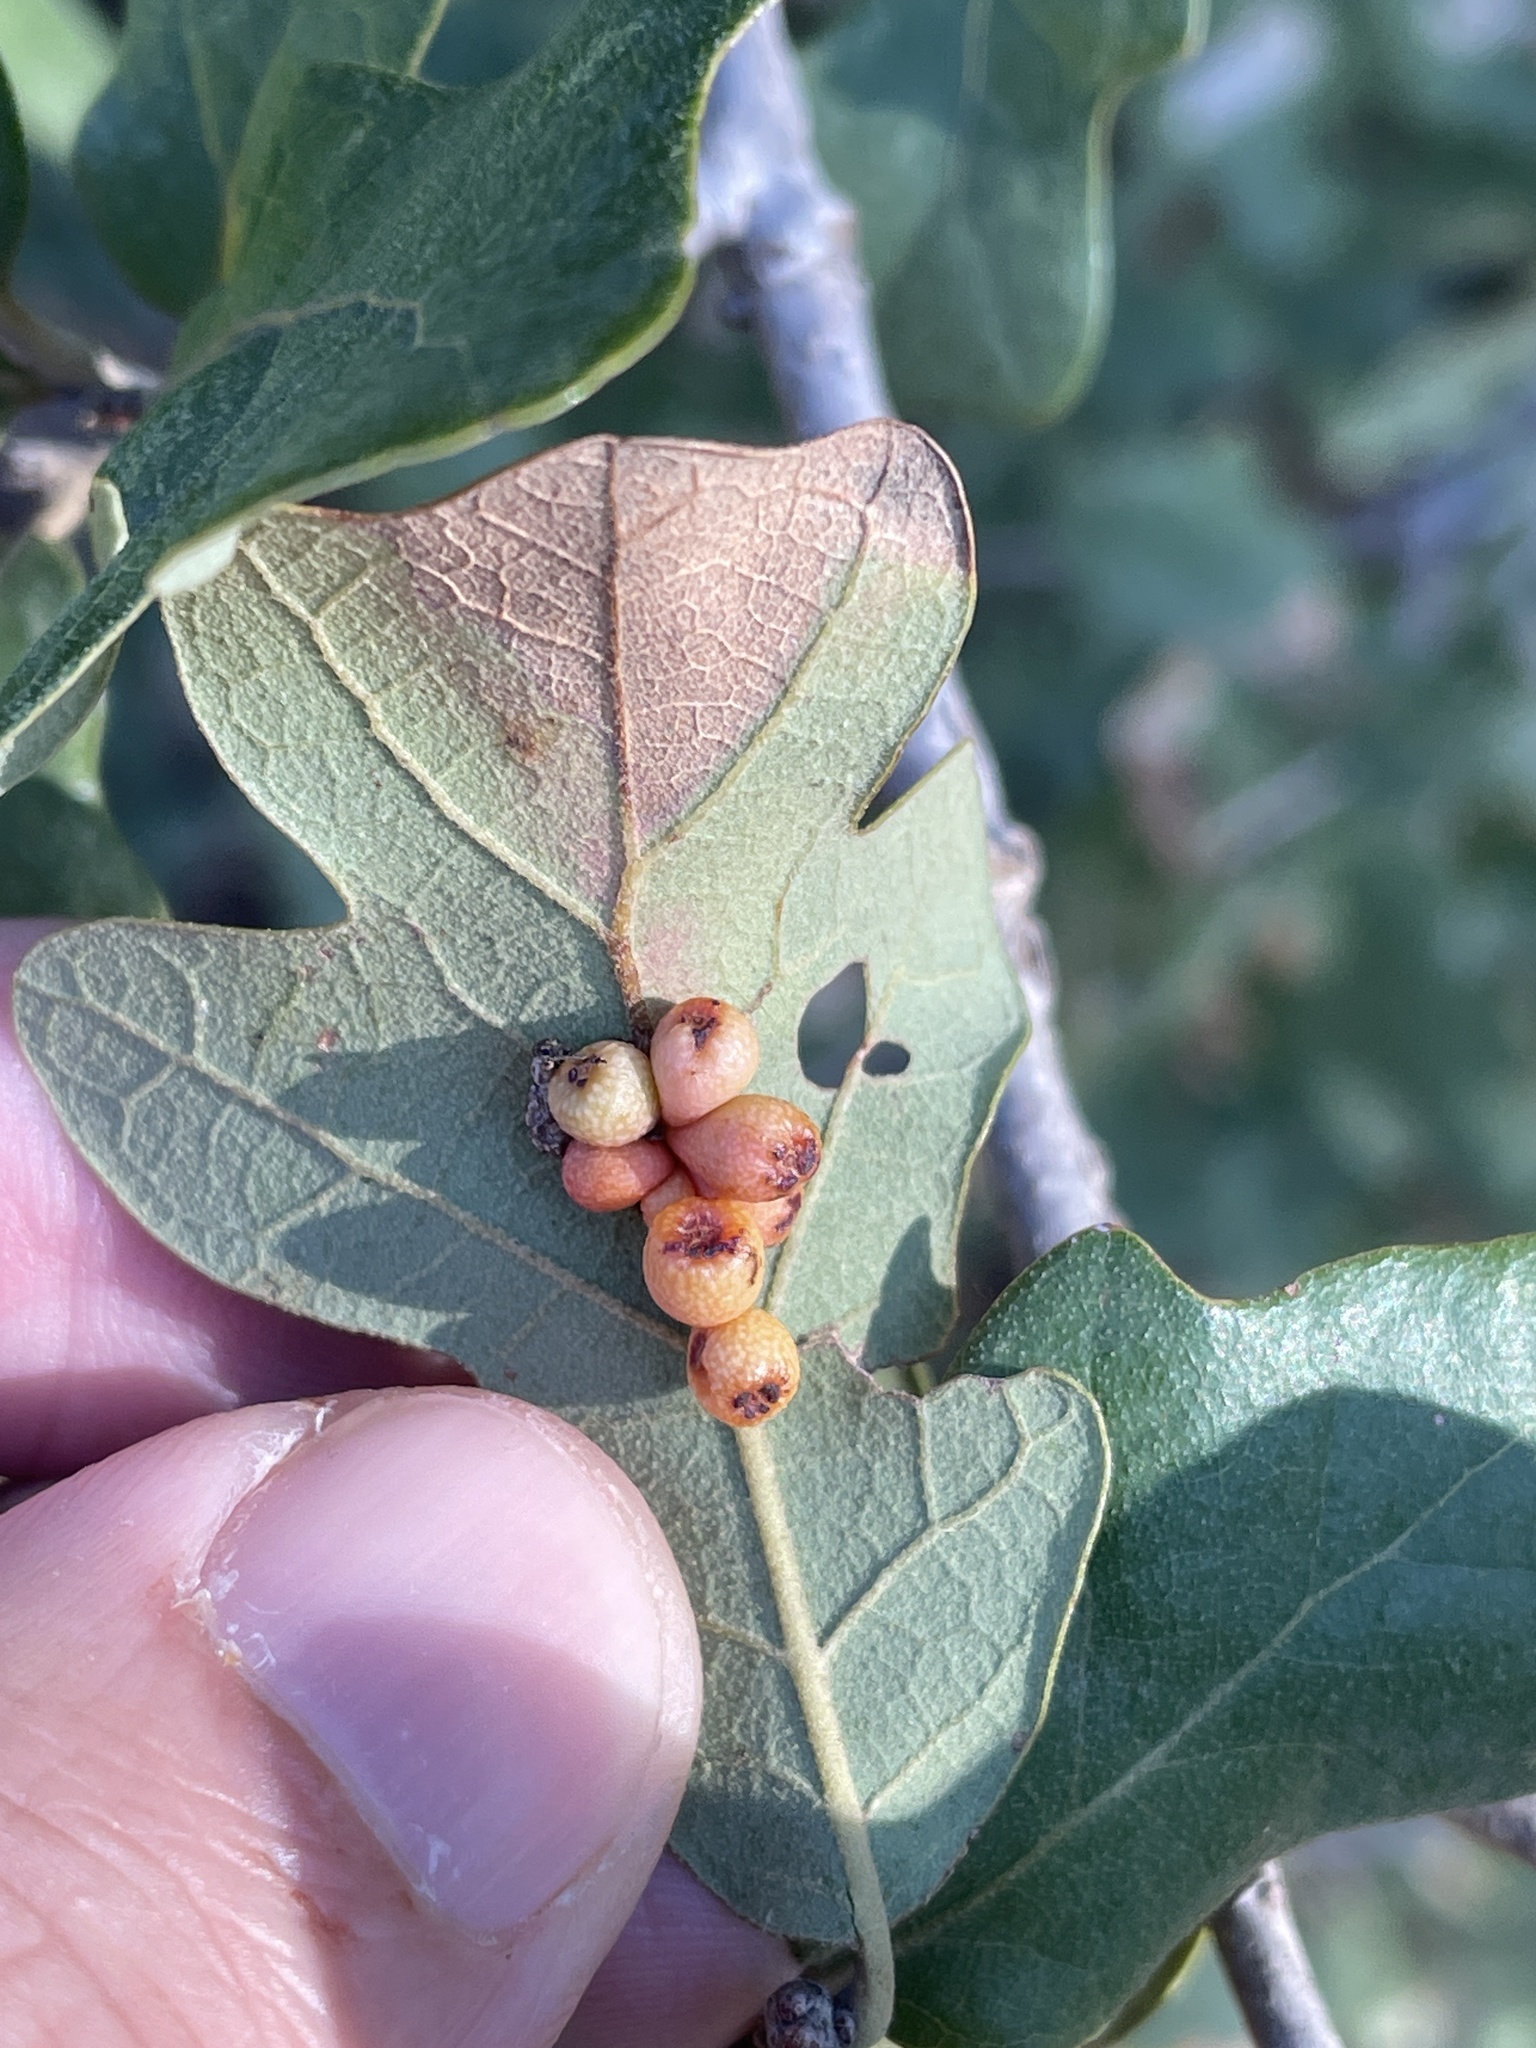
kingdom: Animalia
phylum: Arthropoda
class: Insecta
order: Hymenoptera
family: Cynipidae
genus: Andricus
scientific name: Andricus lustrans
